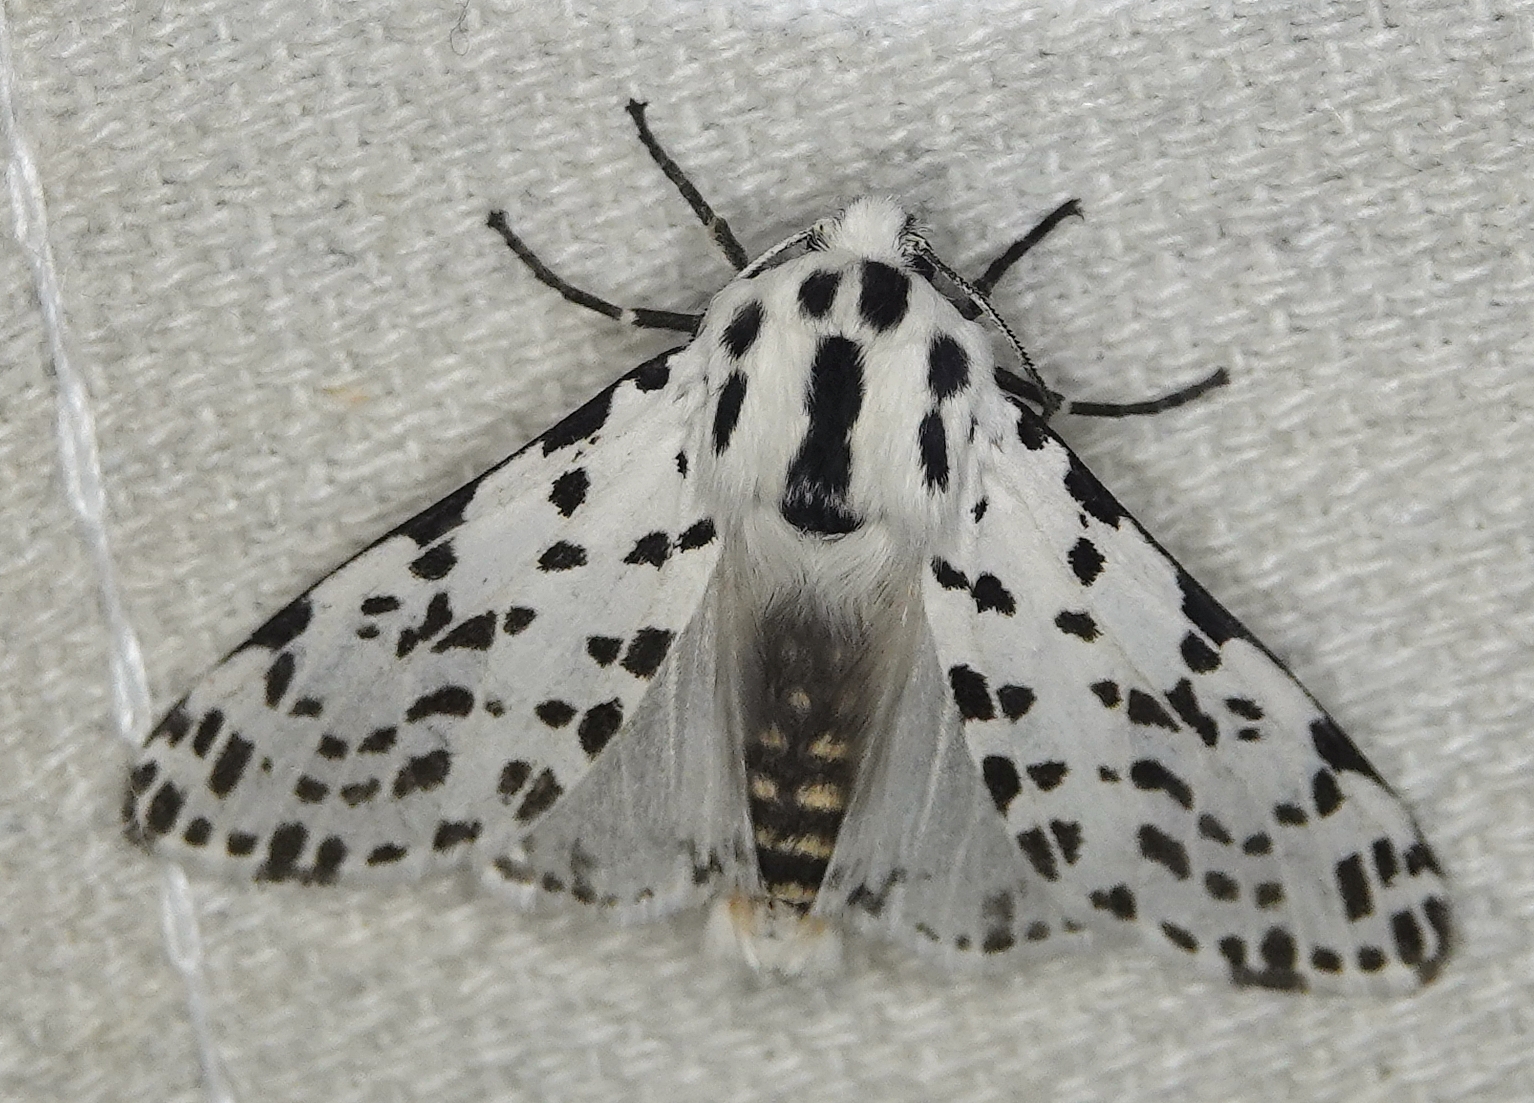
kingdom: Animalia
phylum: Arthropoda
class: Insecta
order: Lepidoptera
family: Erebidae
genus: Hypercompe
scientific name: Hypercompe permaculata
